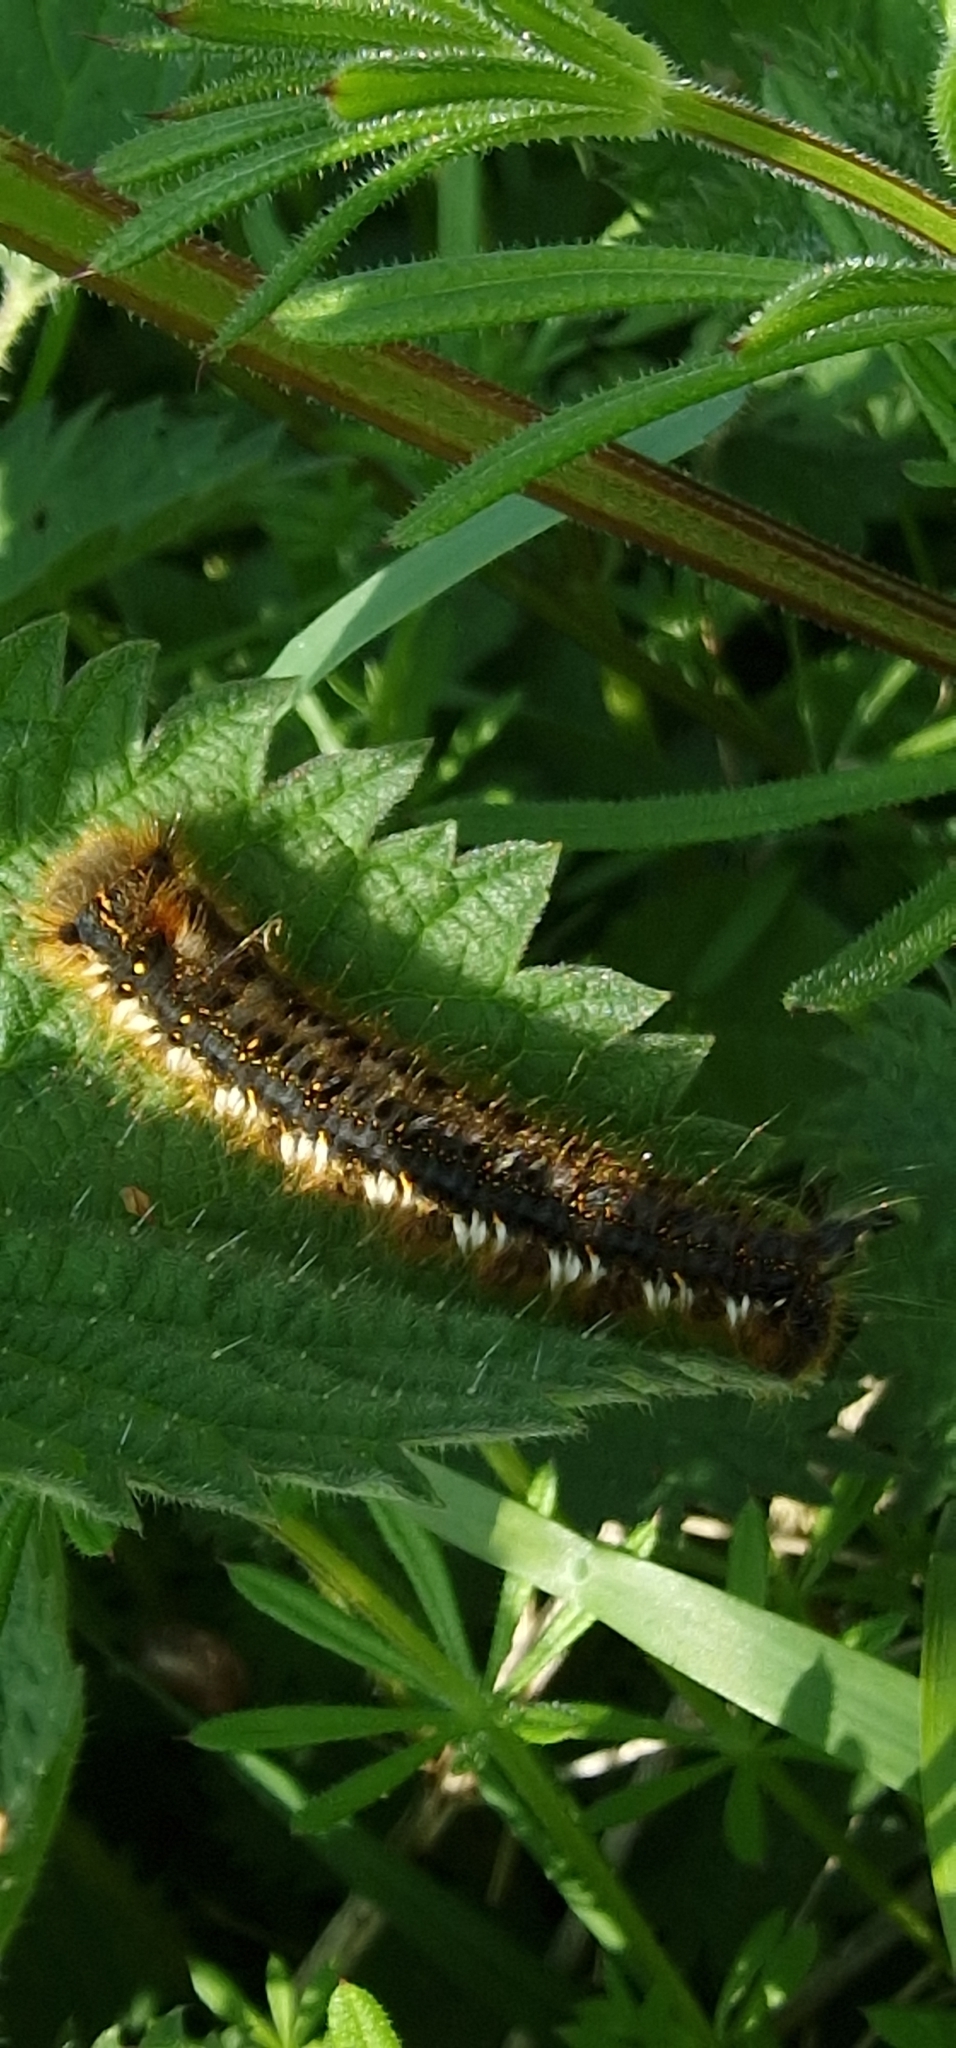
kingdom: Animalia
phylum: Arthropoda
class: Insecta
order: Lepidoptera
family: Lasiocampidae
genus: Euthrix
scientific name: Euthrix potatoria
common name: Drinker
